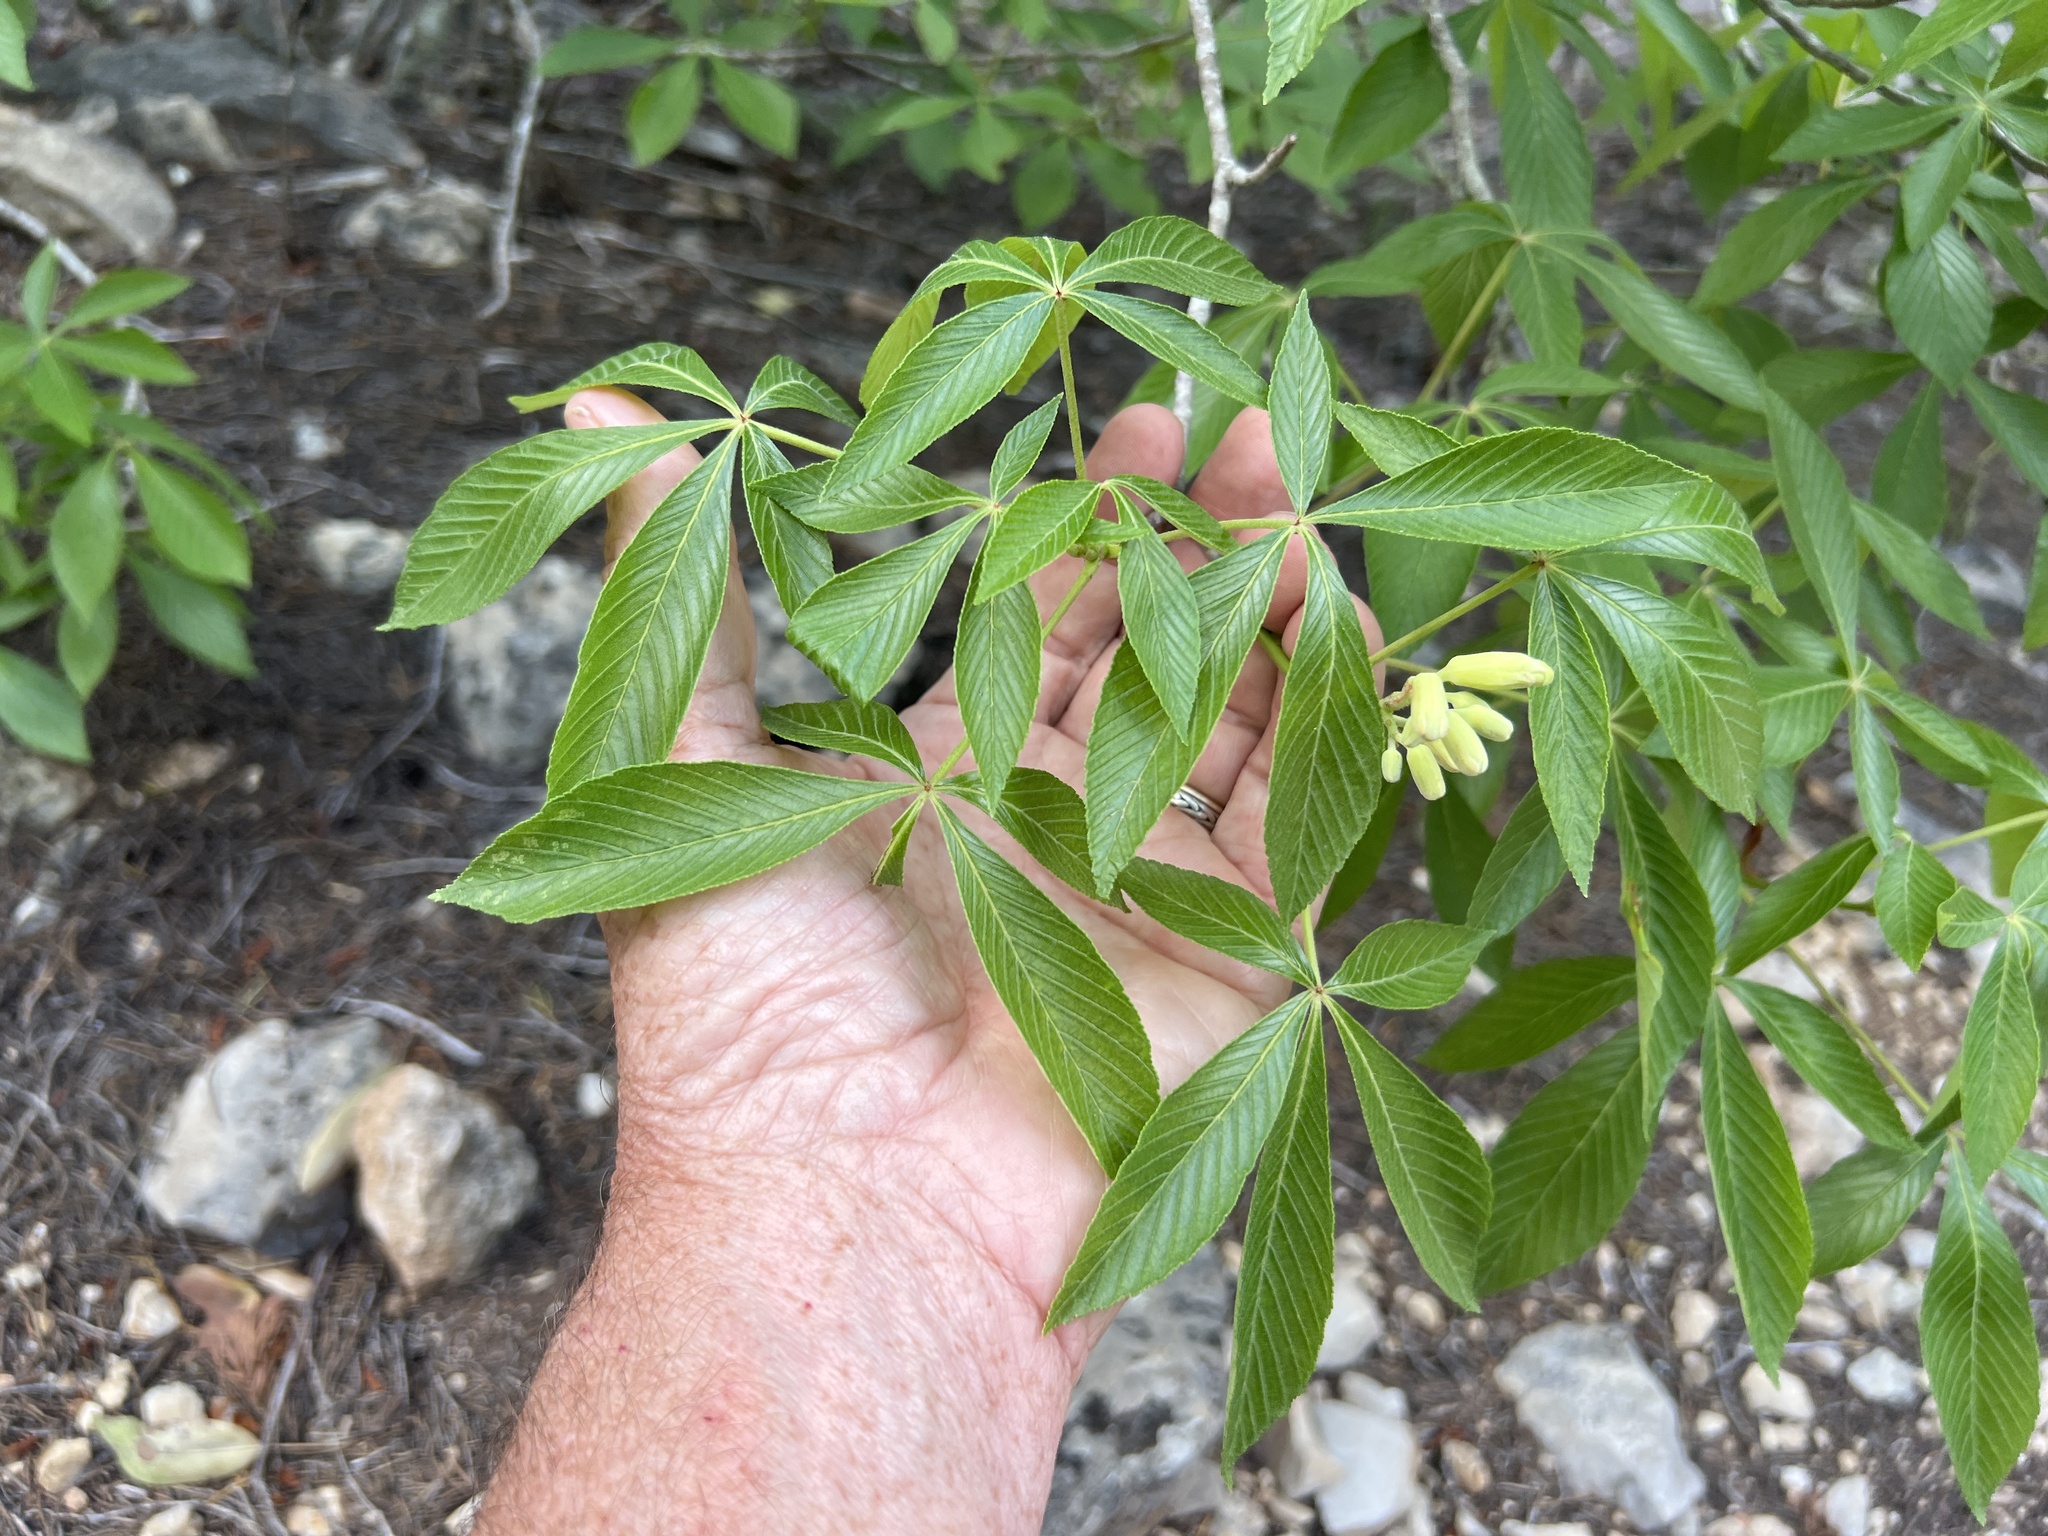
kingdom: Plantae
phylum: Tracheophyta
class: Magnoliopsida
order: Sapindales
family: Sapindaceae
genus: Aesculus
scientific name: Aesculus pavia
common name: Red buckeye
